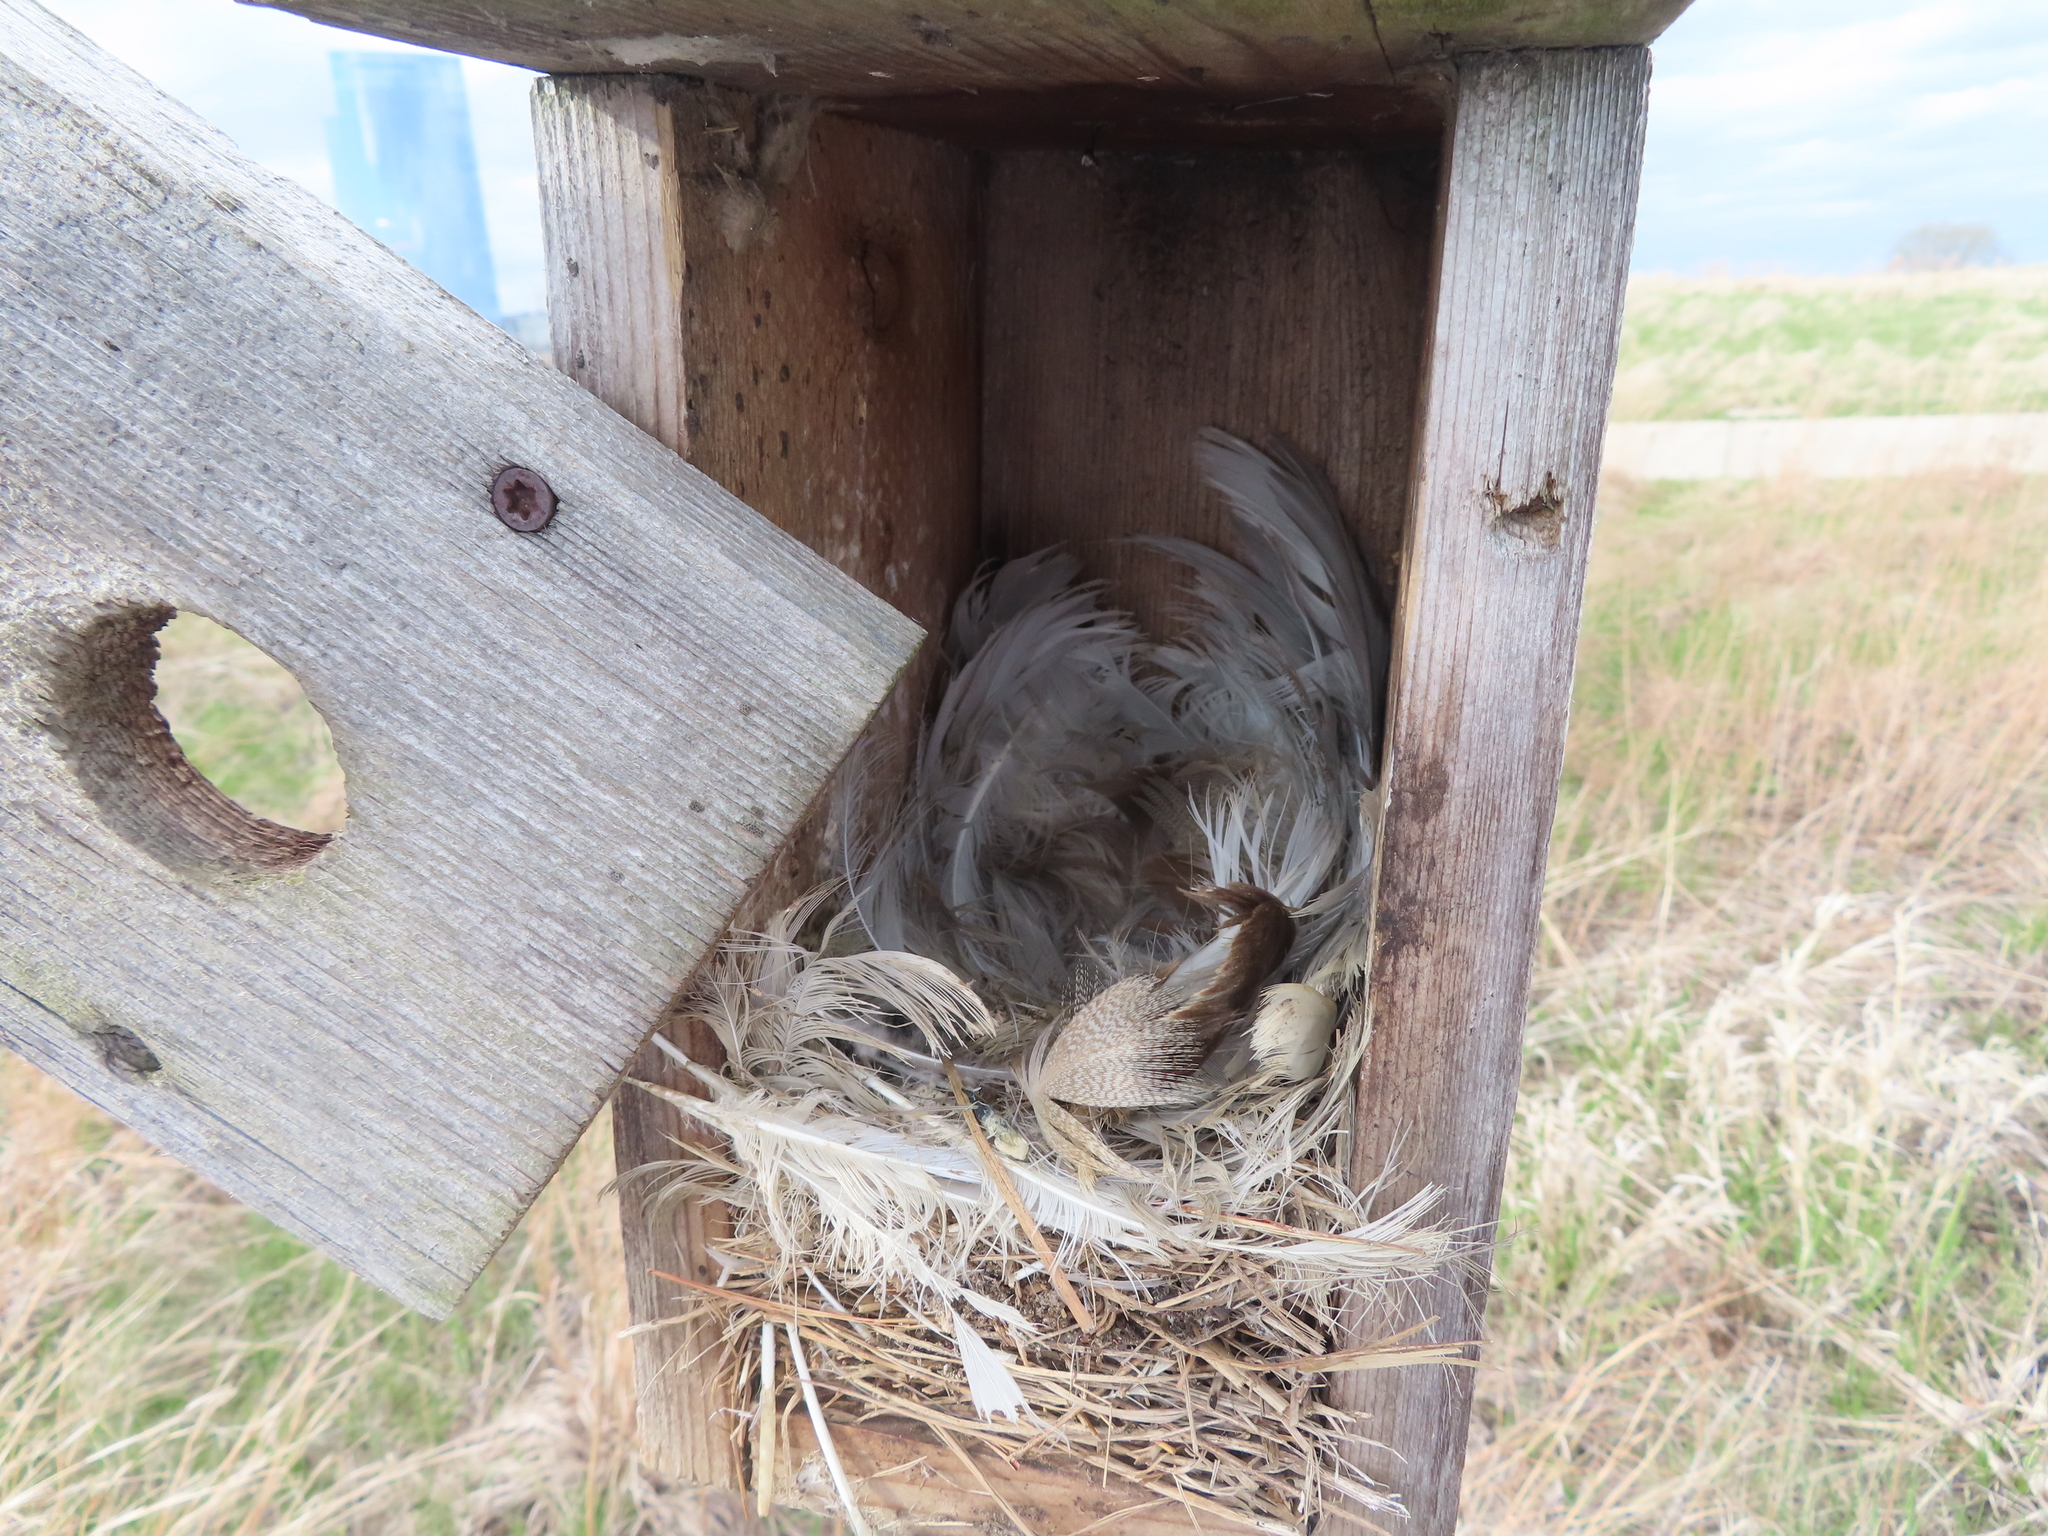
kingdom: Animalia
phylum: Chordata
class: Aves
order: Passeriformes
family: Hirundinidae
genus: Tachycineta
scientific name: Tachycineta bicolor
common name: Tree swallow
